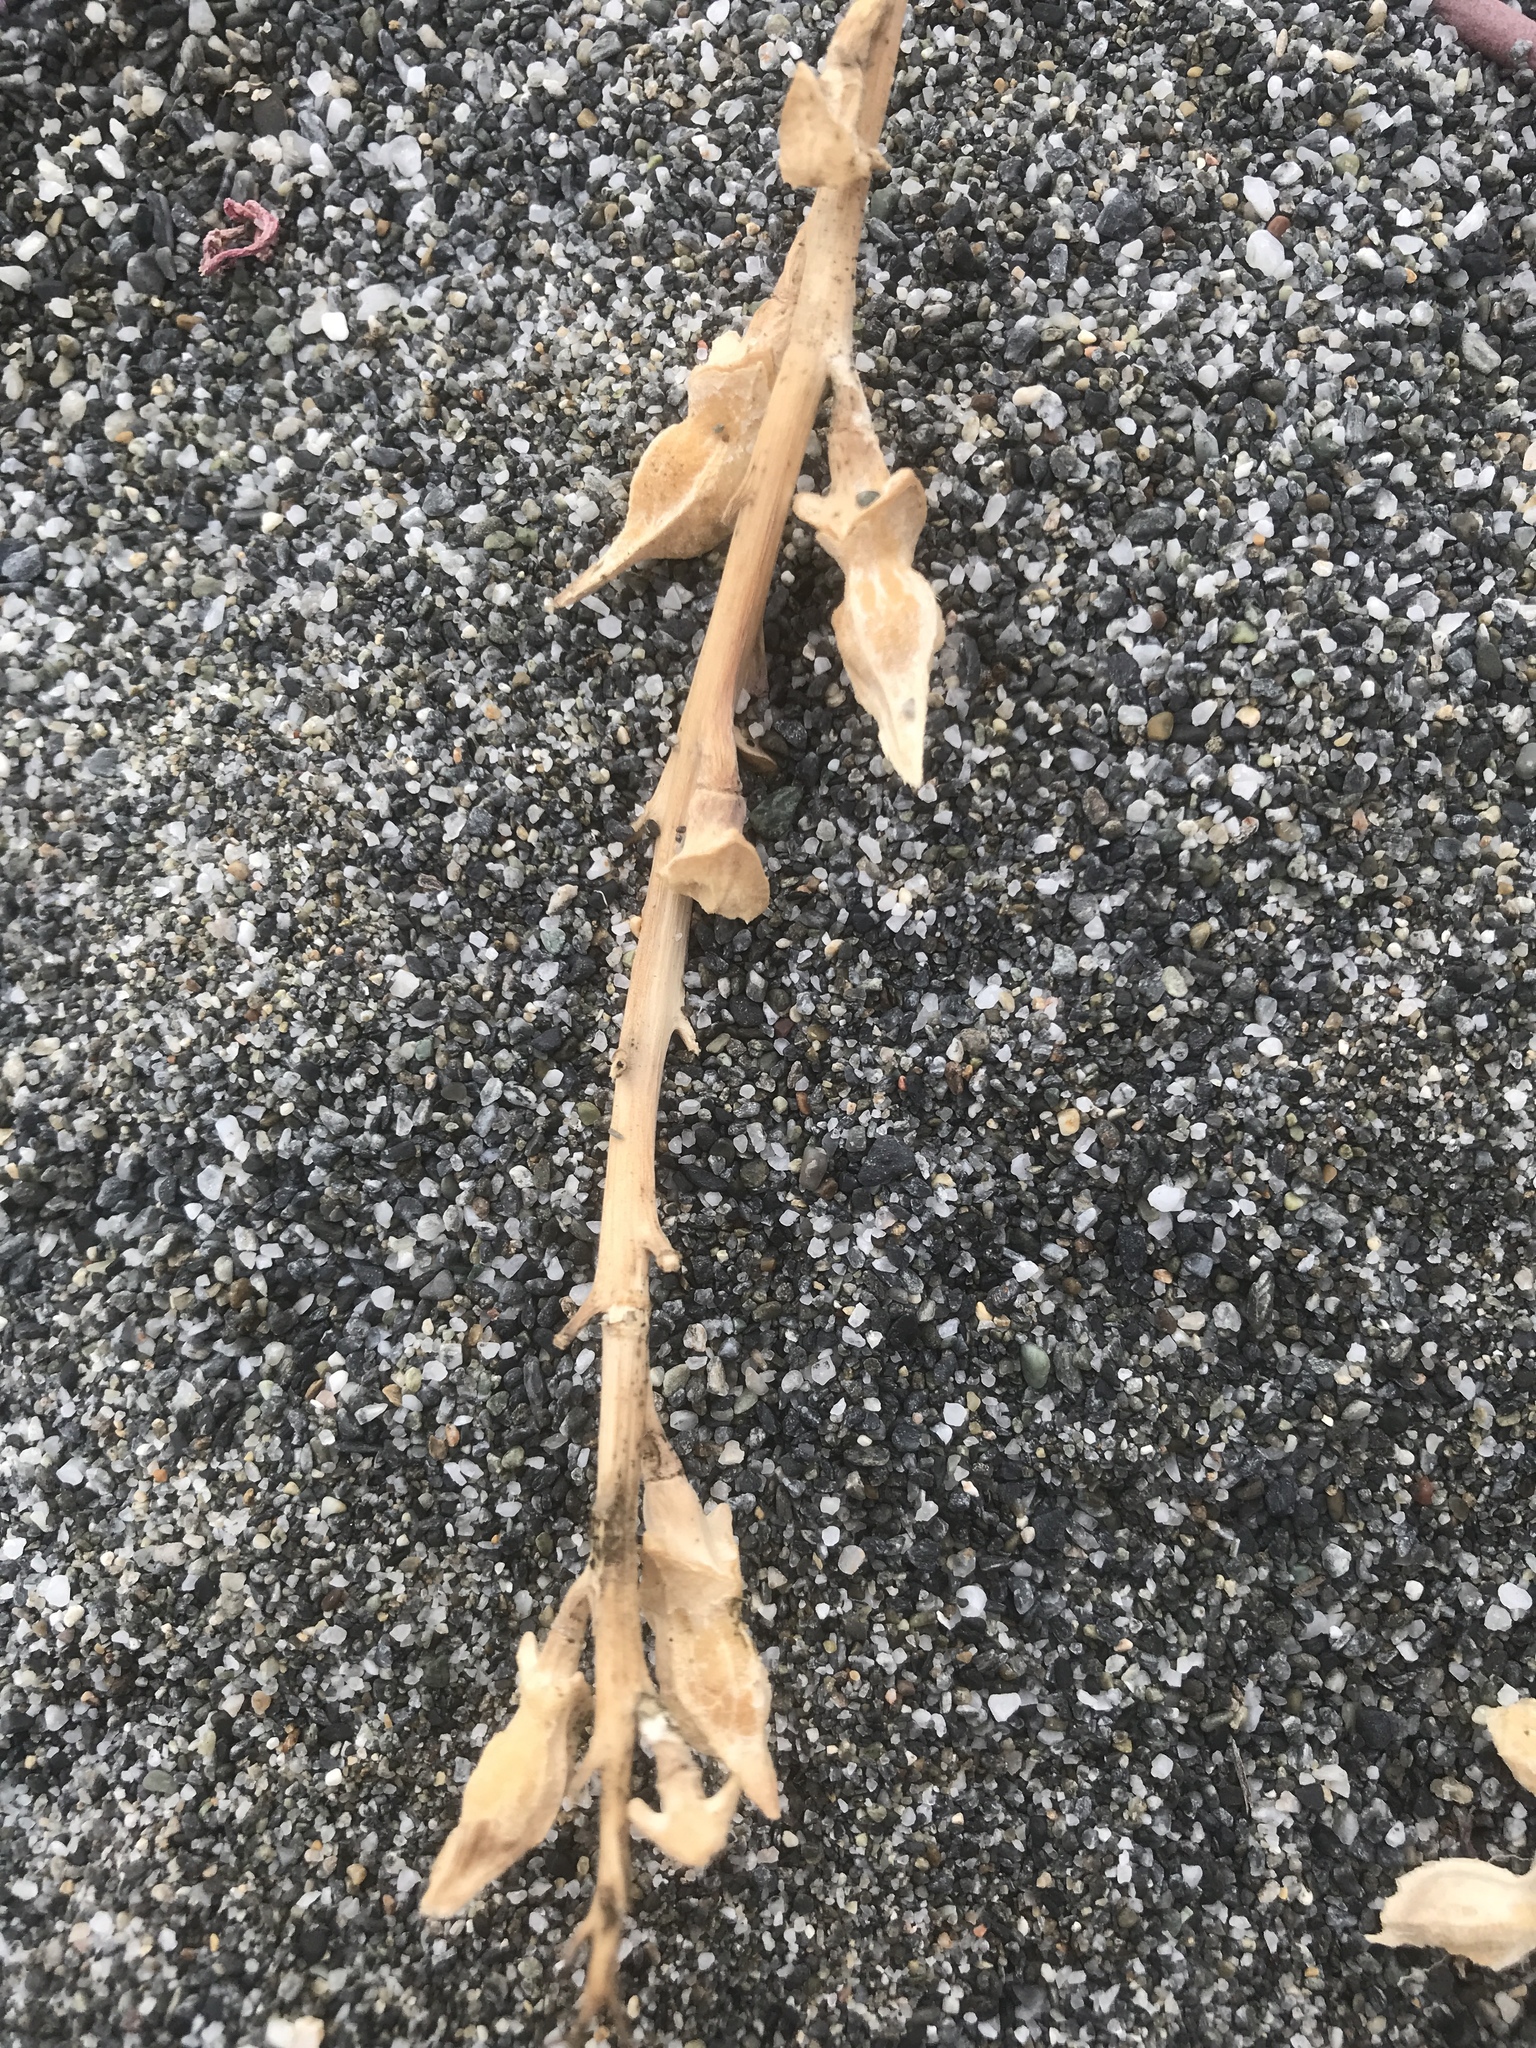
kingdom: Plantae
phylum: Tracheophyta
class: Magnoliopsida
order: Brassicales
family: Brassicaceae
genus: Cakile
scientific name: Cakile maritima
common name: Sea rocket
